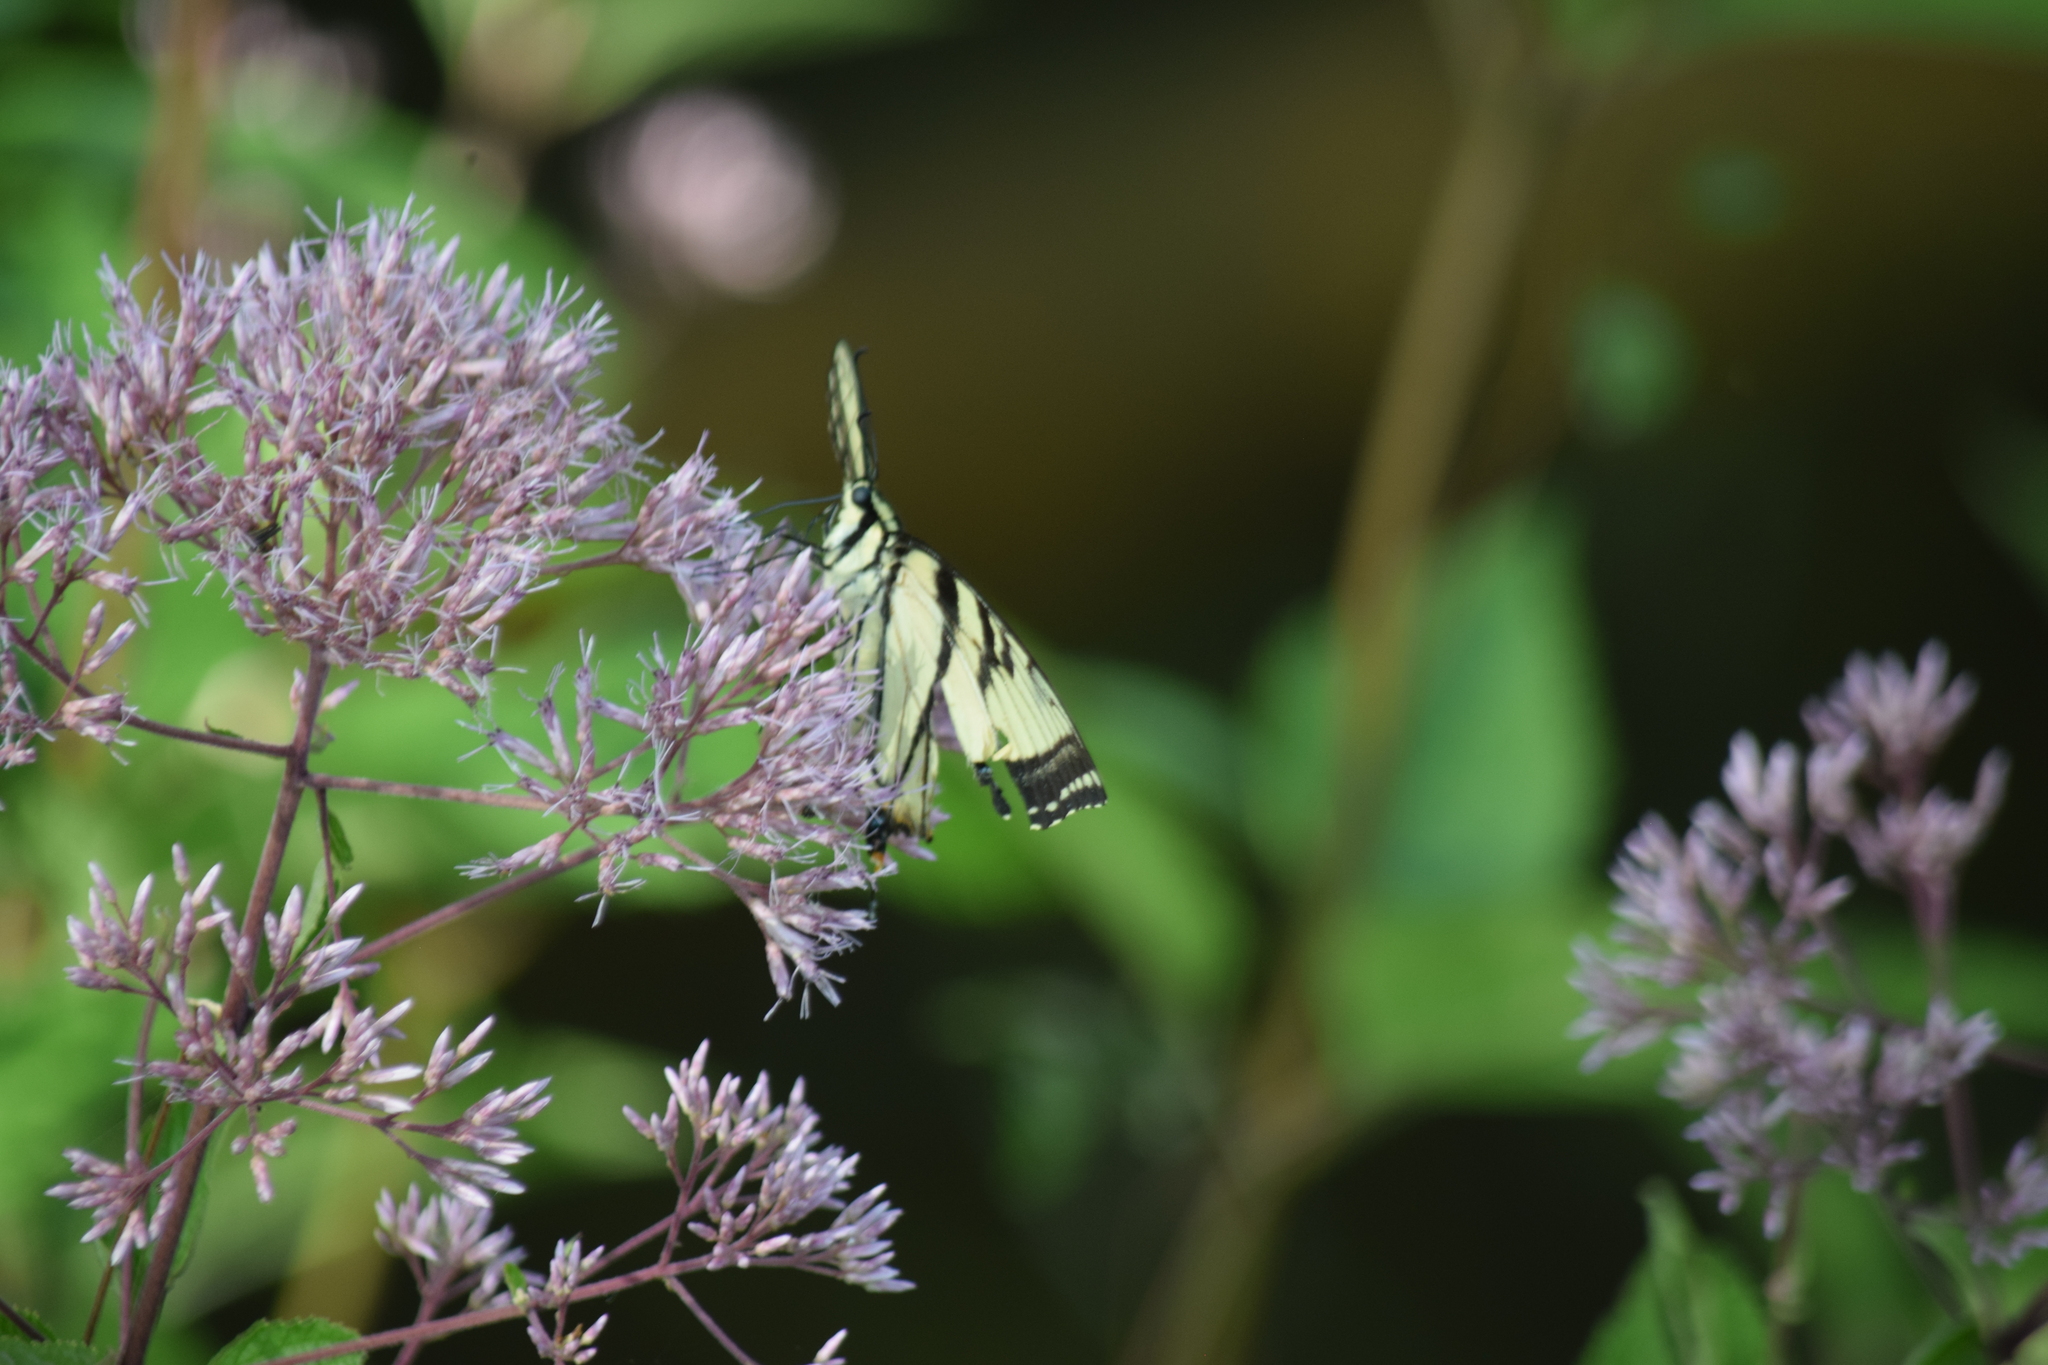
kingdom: Animalia
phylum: Arthropoda
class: Insecta
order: Lepidoptera
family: Papilionidae
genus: Papilio
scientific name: Papilio glaucus
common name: Tiger swallowtail
